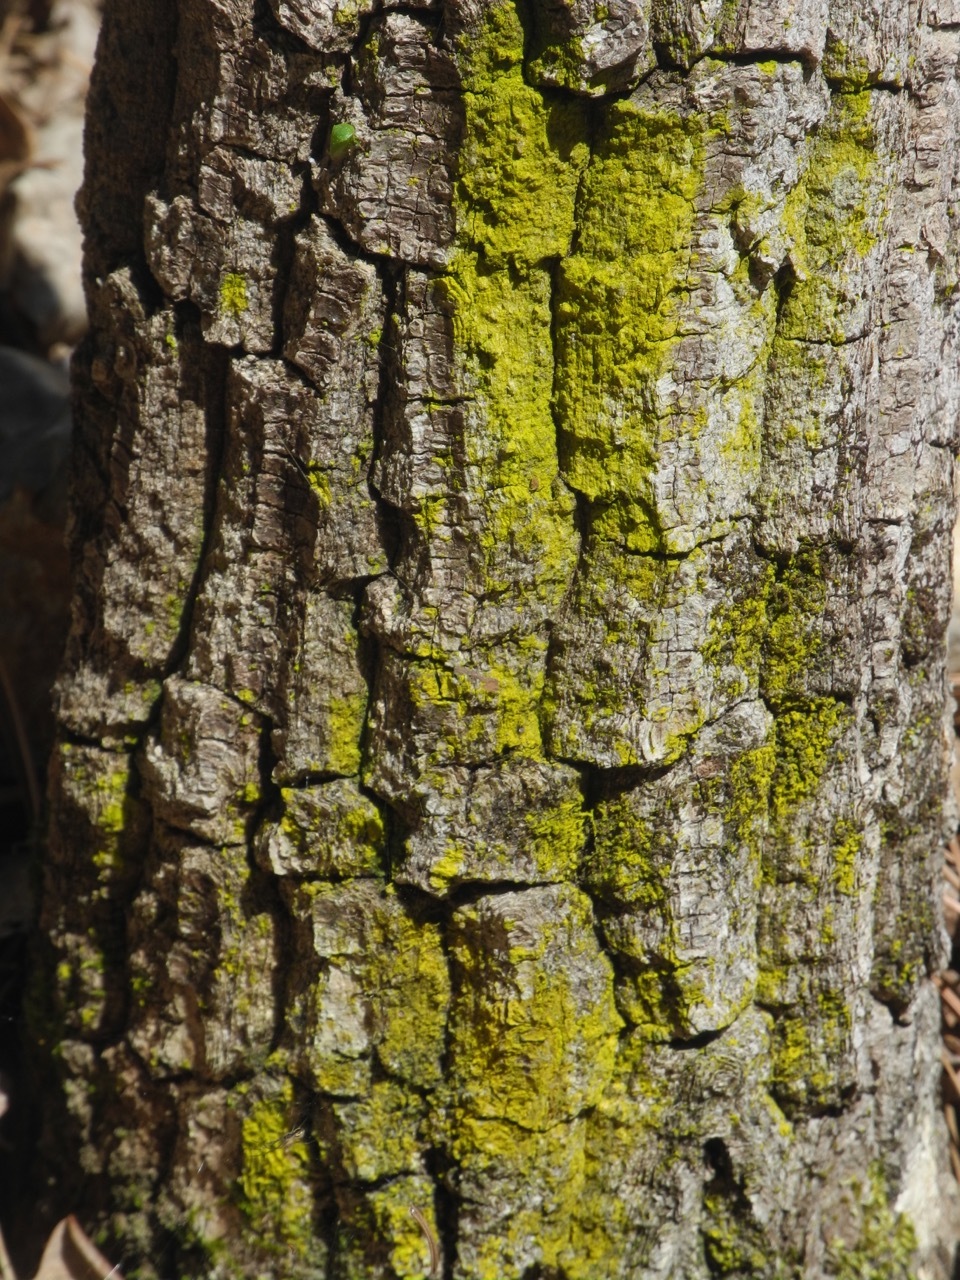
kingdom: Fungi
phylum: Ascomycota
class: Arthoniomycetes
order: Arthoniales
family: Chrysotrichaceae
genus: Chrysothrix
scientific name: Chrysothrix candelaris
